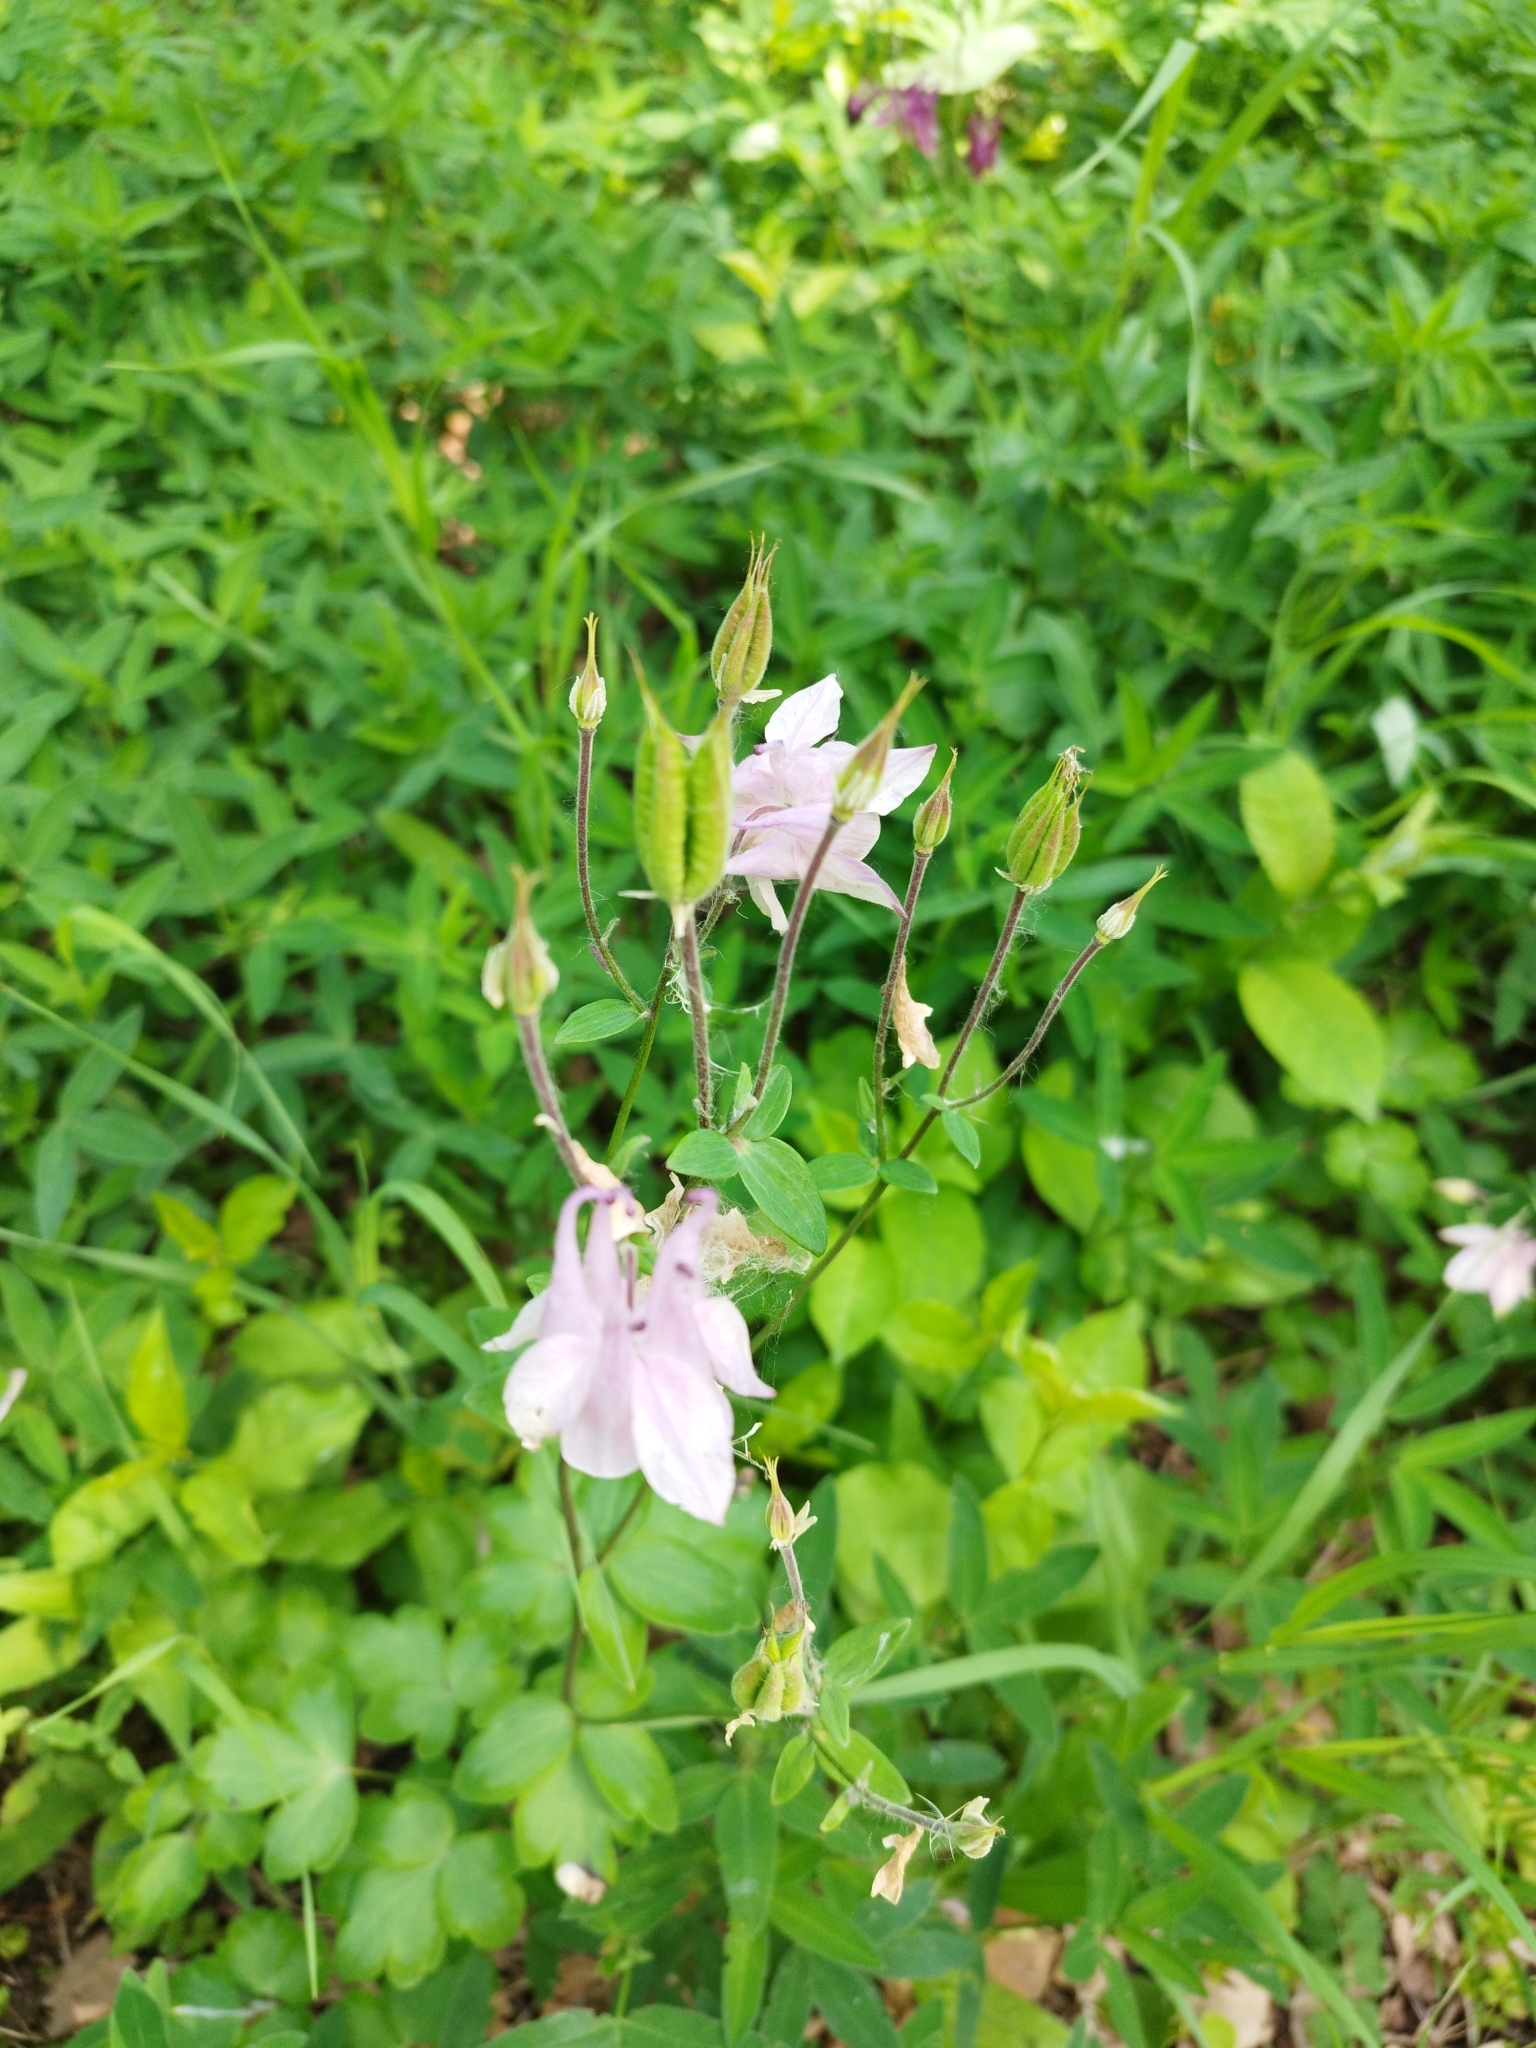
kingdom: Plantae
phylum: Tracheophyta
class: Magnoliopsida
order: Ranunculales
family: Ranunculaceae
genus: Aquilegia
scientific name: Aquilegia vulgaris
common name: Columbine
